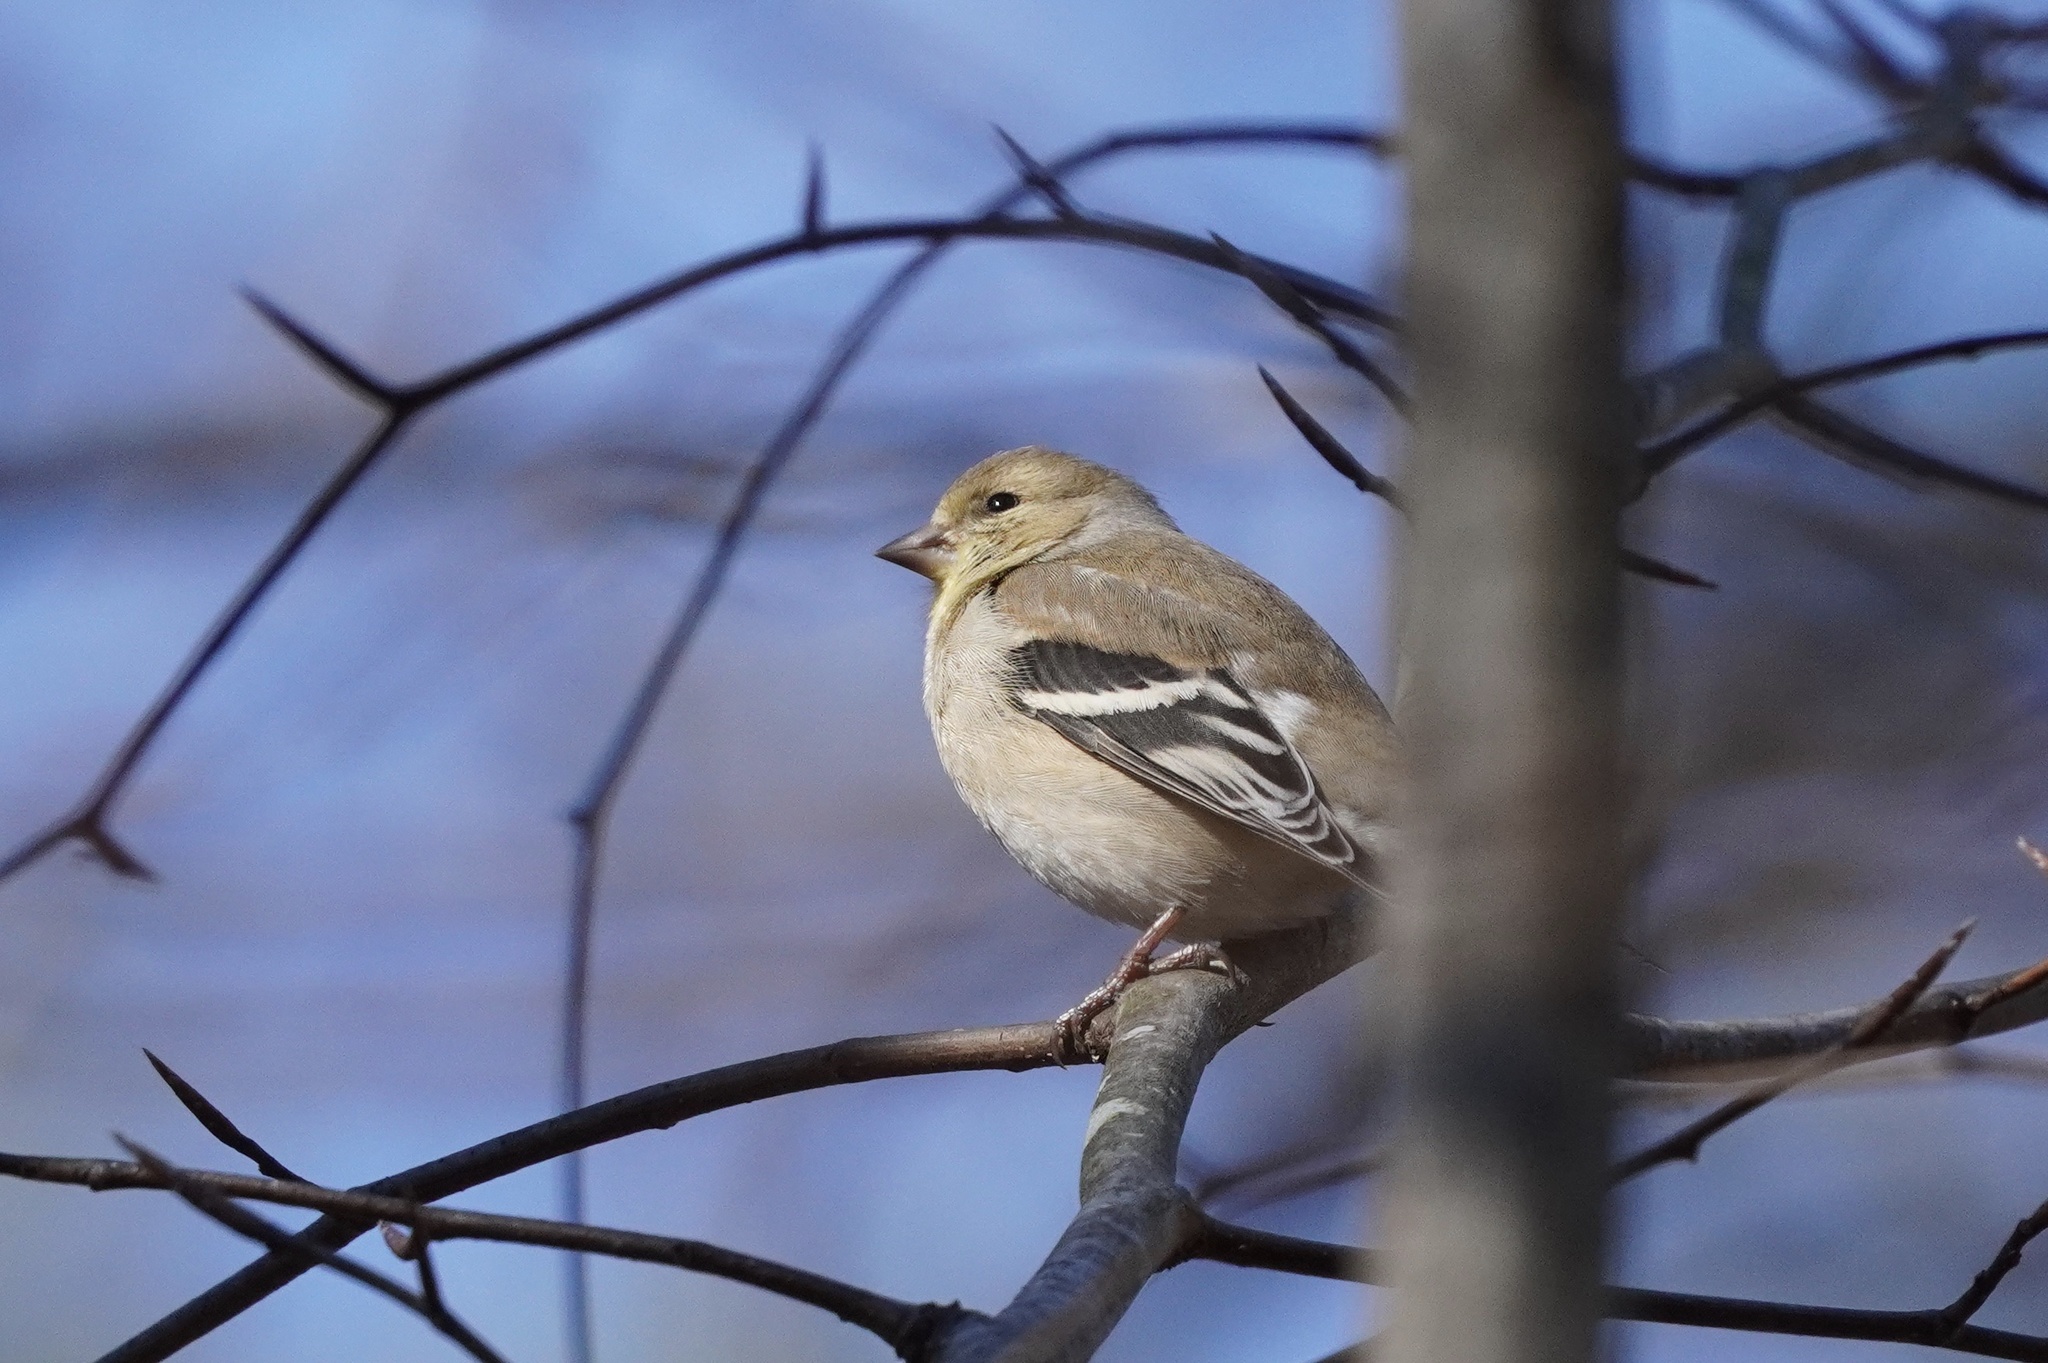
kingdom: Animalia
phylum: Chordata
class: Aves
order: Passeriformes
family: Fringillidae
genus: Spinus
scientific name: Spinus tristis
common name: American goldfinch
